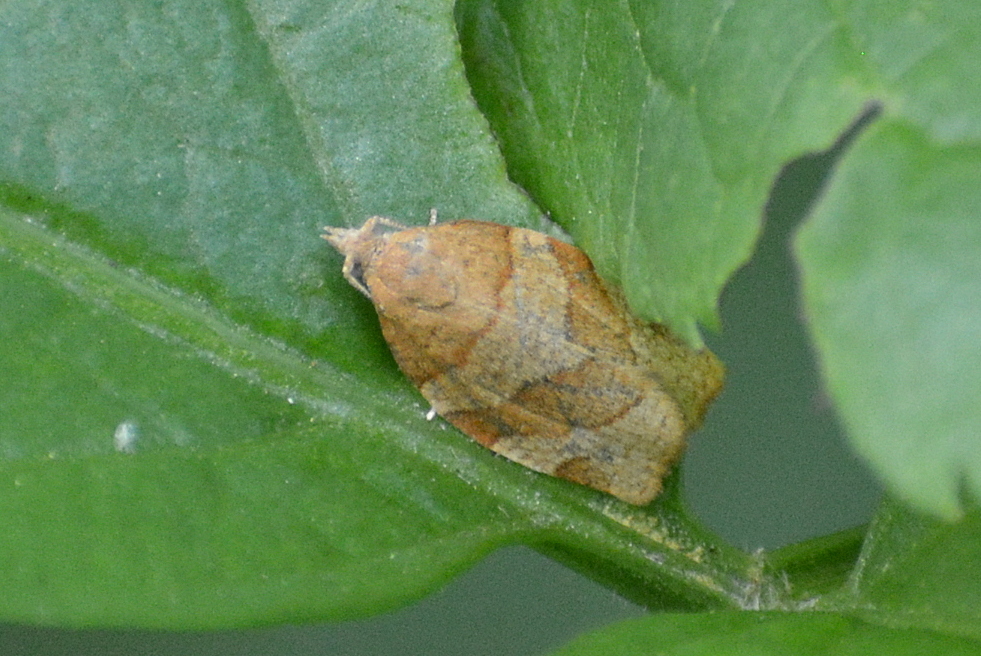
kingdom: Animalia
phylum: Arthropoda
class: Insecta
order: Lepidoptera
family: Tortricidae
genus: Pandemis
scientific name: Pandemis cerasana
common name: Barred fruit-tree tortrix
